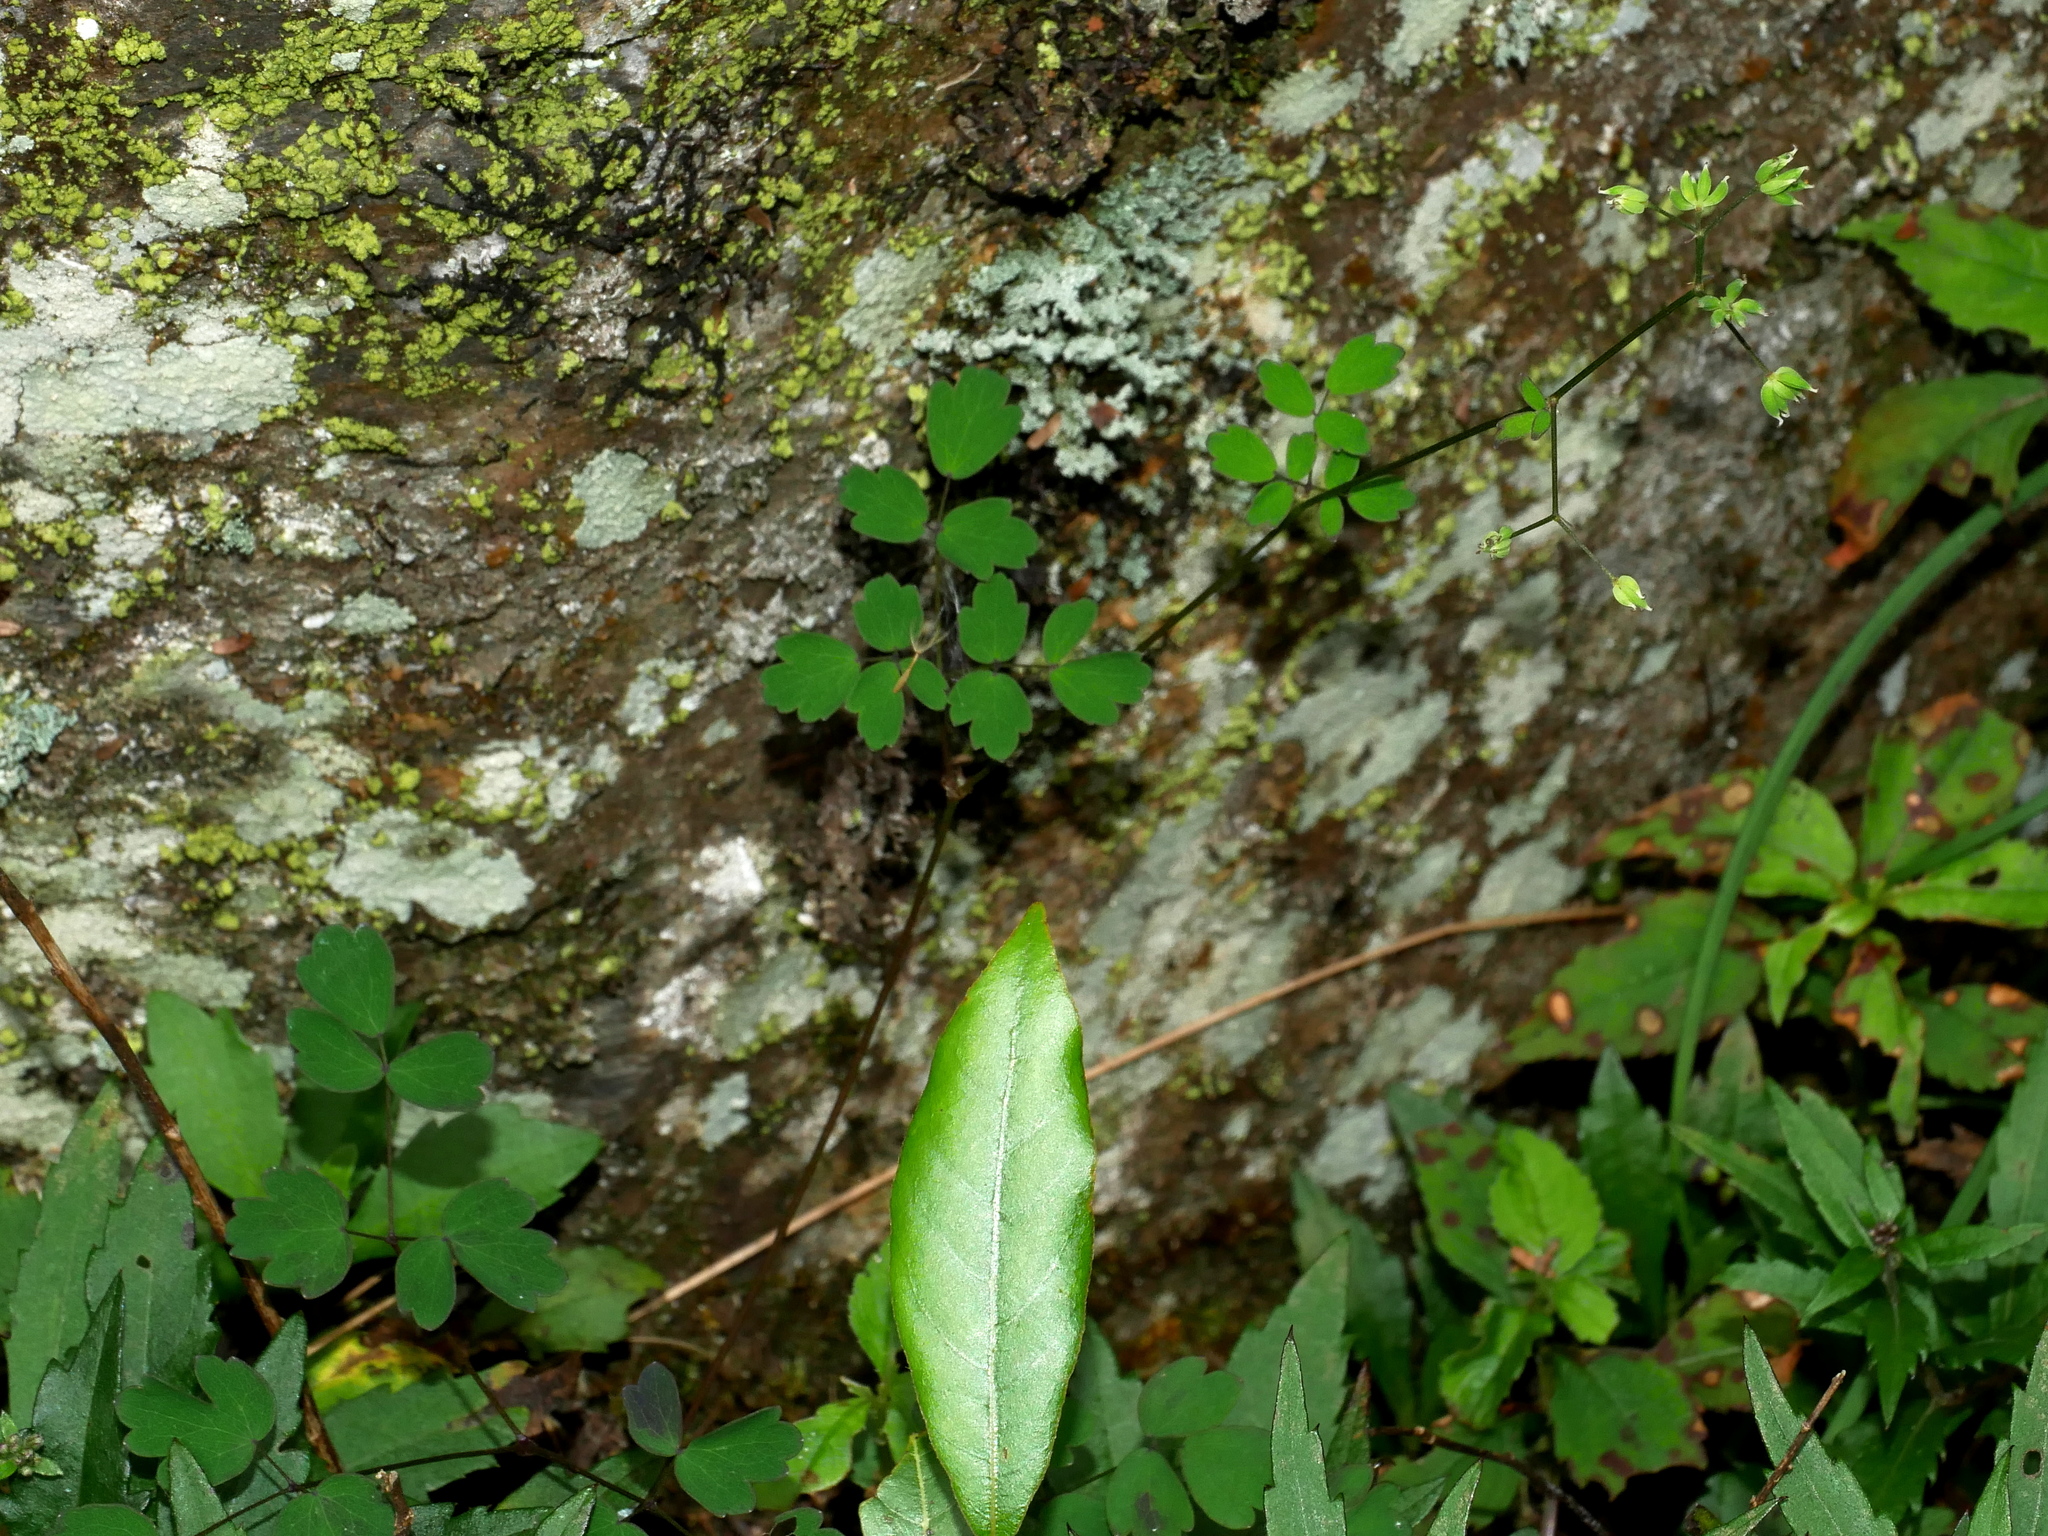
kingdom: Plantae
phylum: Tracheophyta
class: Magnoliopsida
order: Ranunculales
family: Ranunculaceae
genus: Thalictrum
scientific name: Thalictrum urbaini
